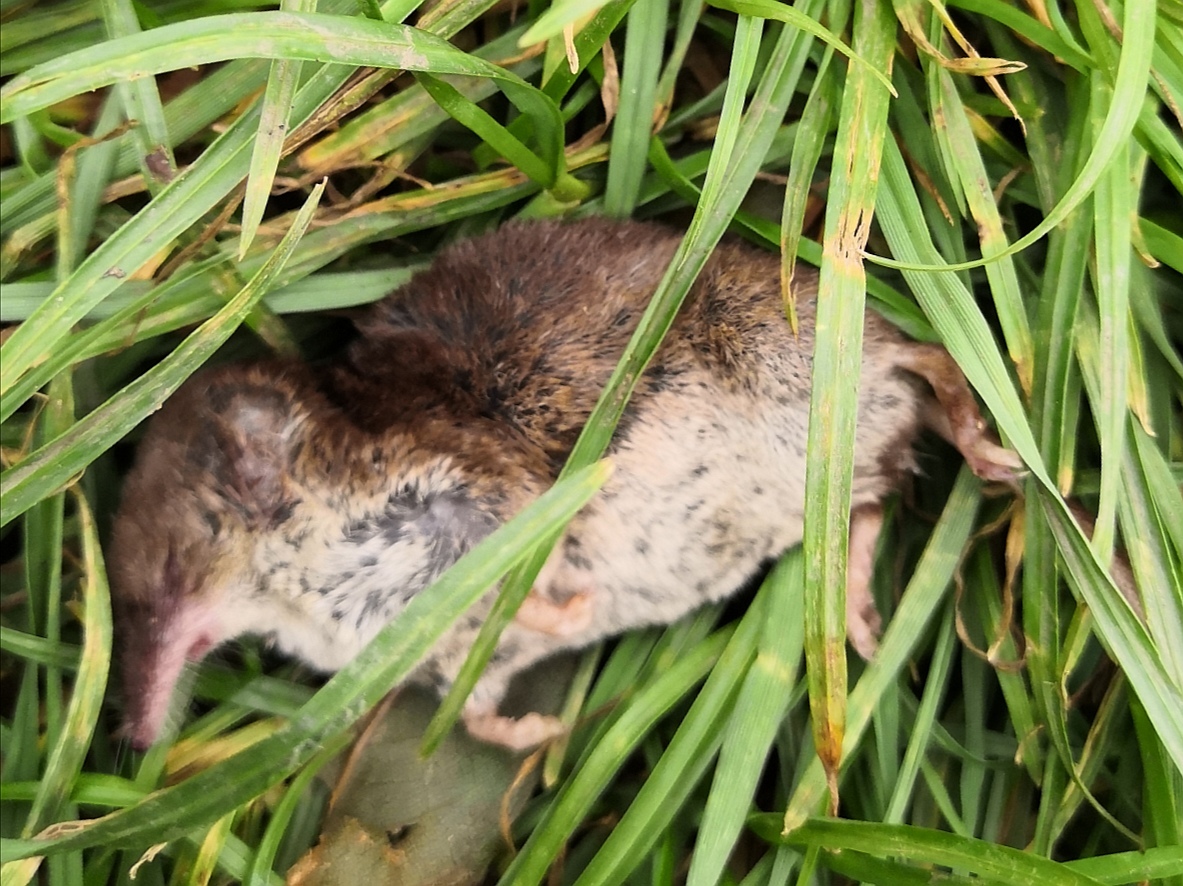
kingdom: Animalia
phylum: Chordata
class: Mammalia
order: Soricomorpha
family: Soricidae
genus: Sorex
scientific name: Sorex araneus
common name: Common shrew
